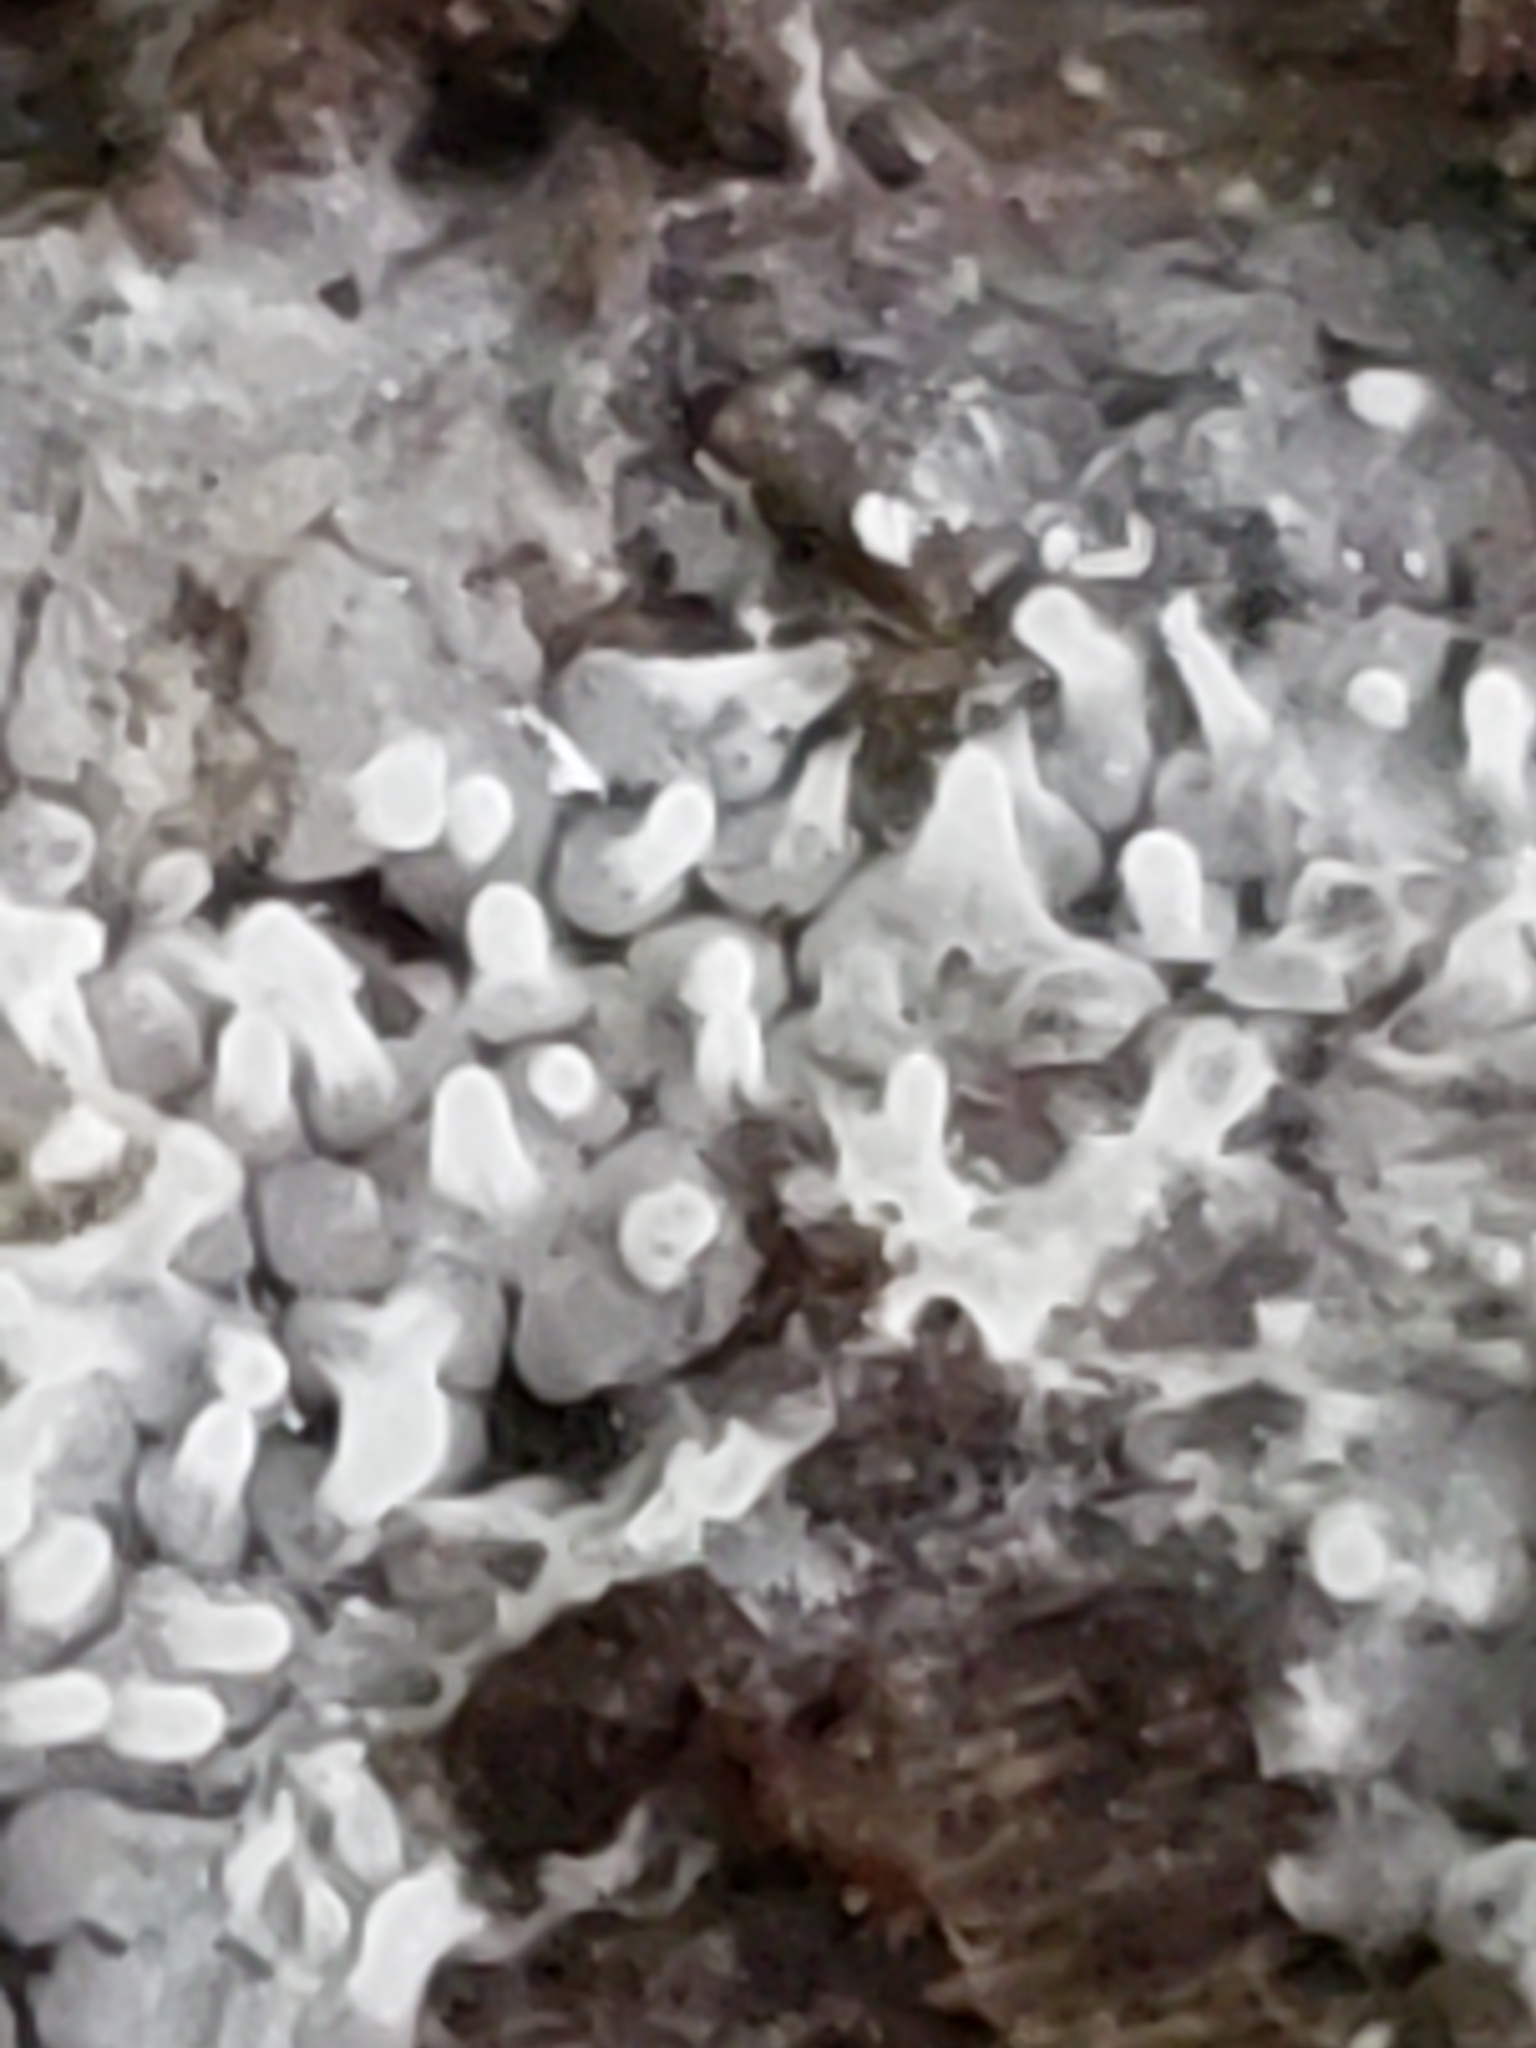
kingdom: Protozoa
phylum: Mycetozoa
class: Protosteliomycetes
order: Ceratiomyxales
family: Ceratiomyxaceae
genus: Ceratiomyxa
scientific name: Ceratiomyxa fruticulosa
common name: Honeycomb coral slime mold
